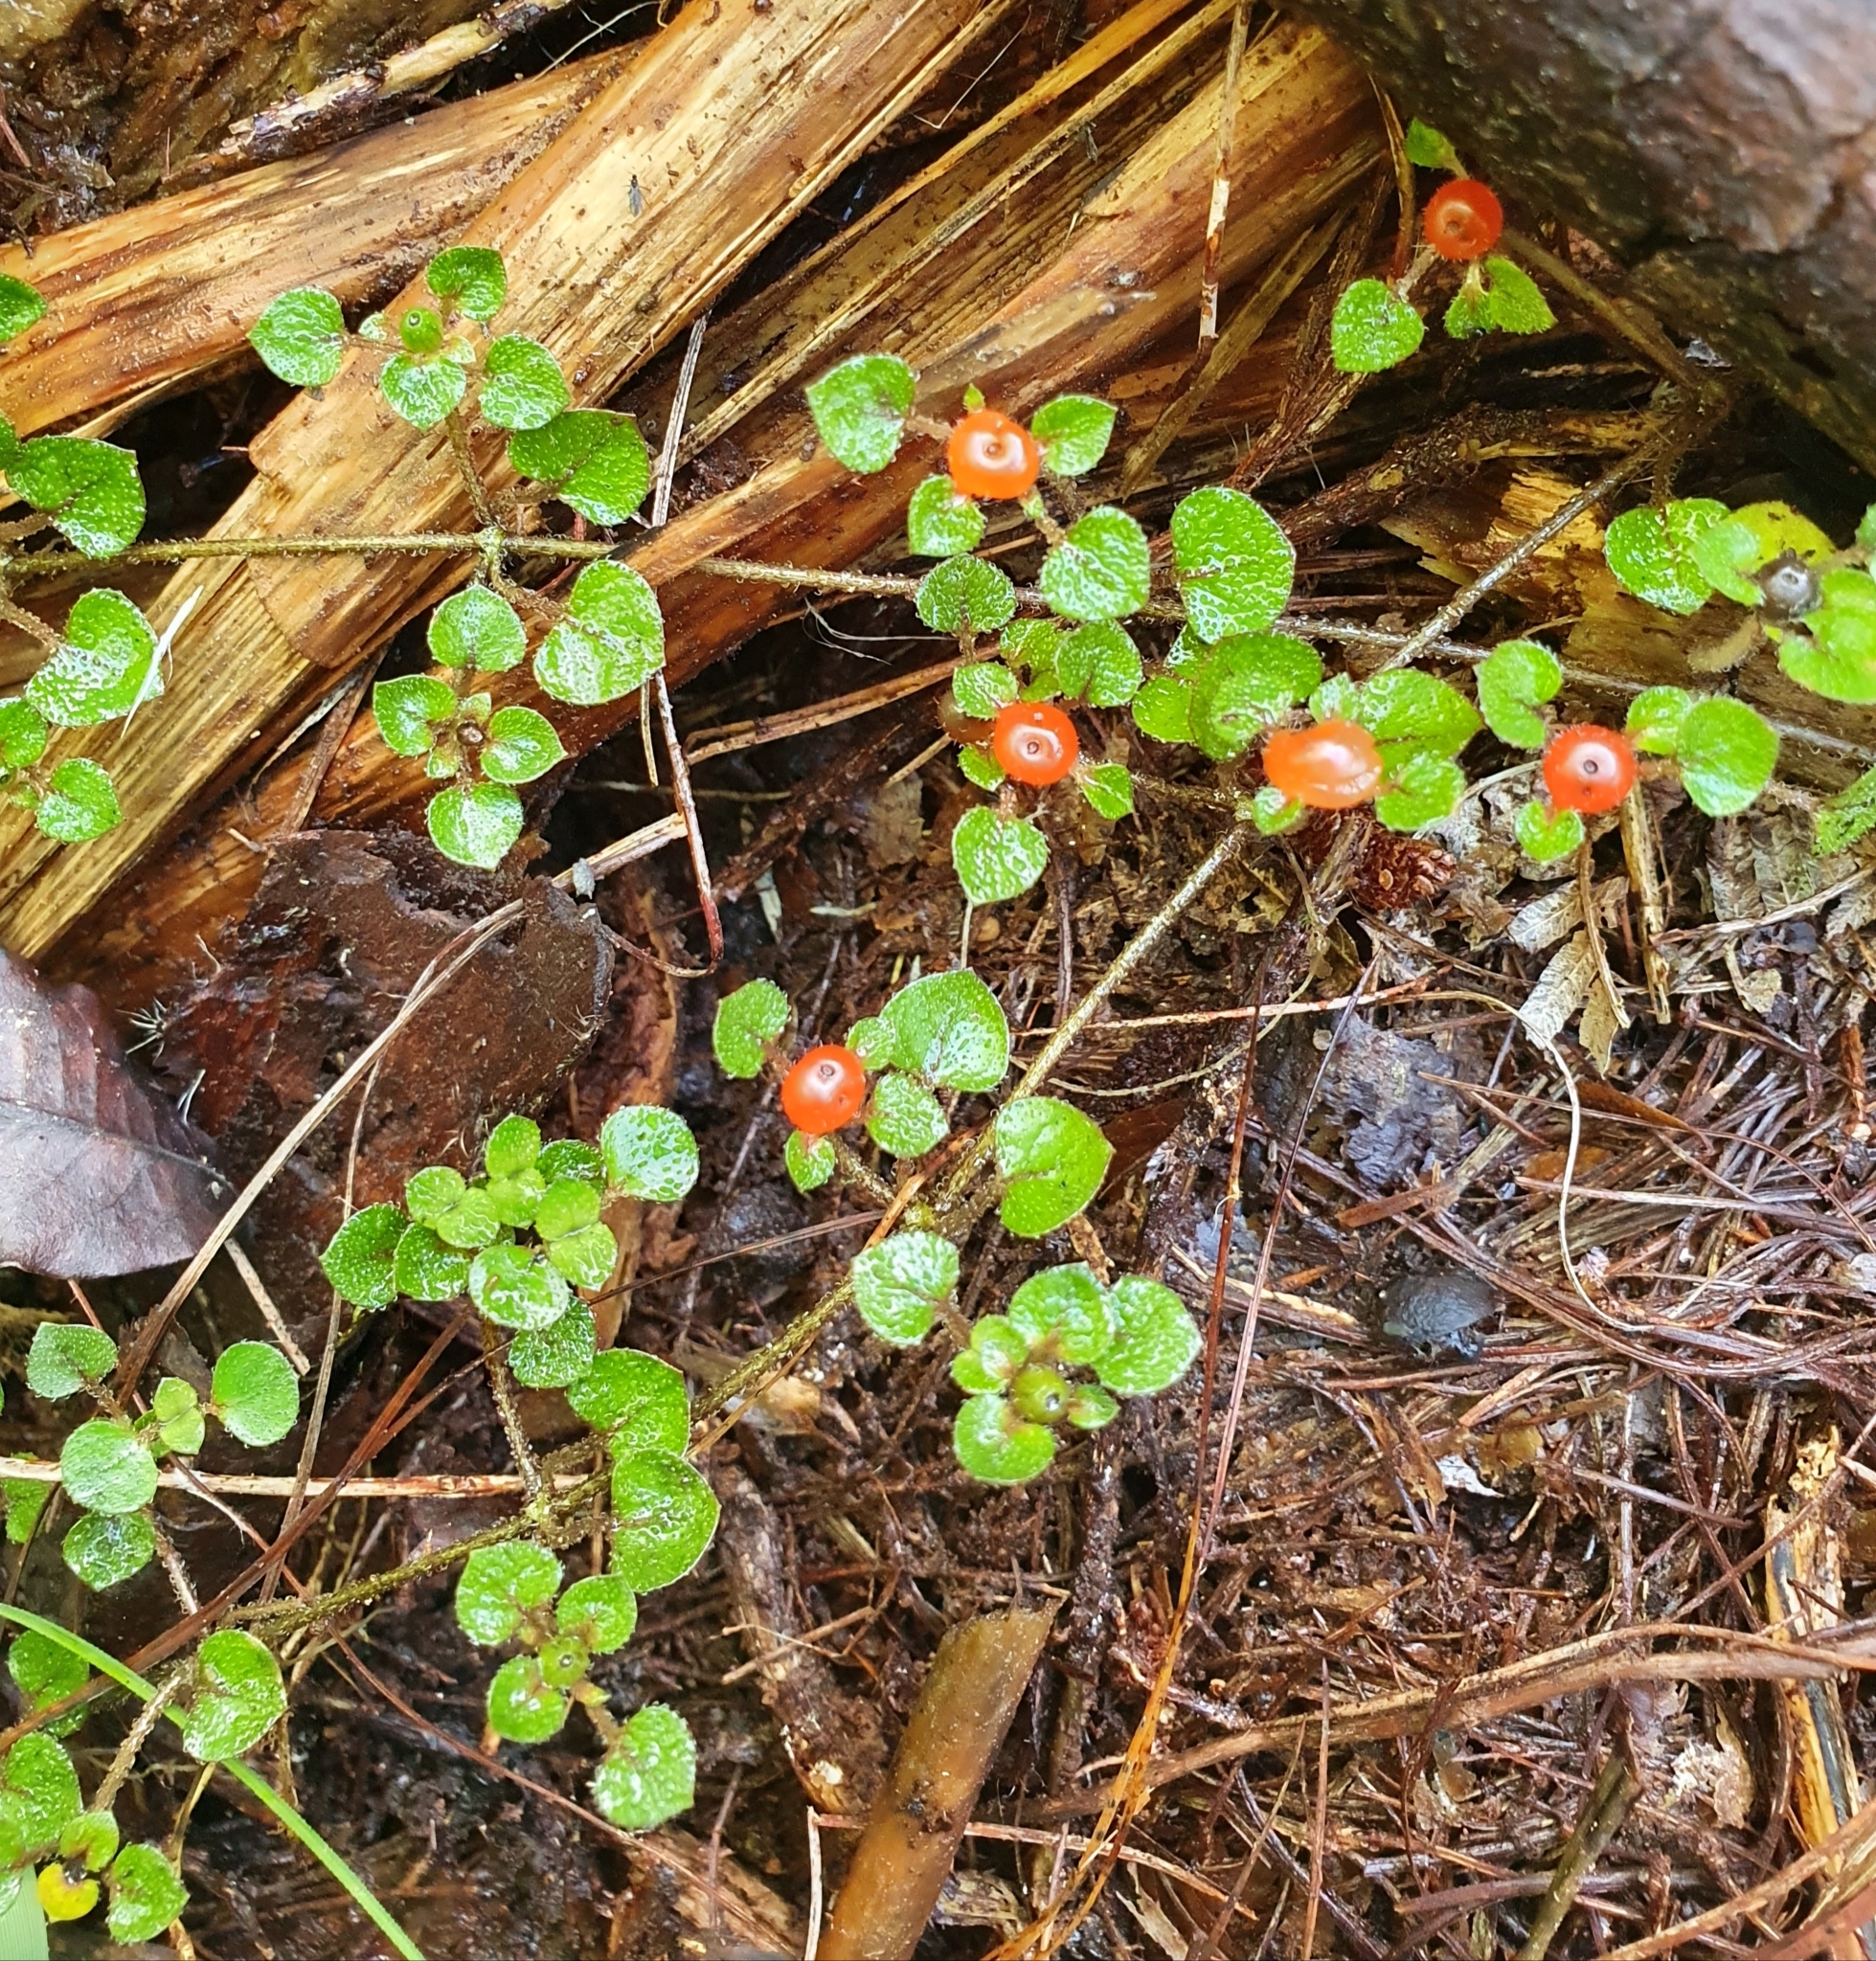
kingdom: Plantae
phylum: Tracheophyta
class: Magnoliopsida
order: Gentianales
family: Rubiaceae
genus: Nertera
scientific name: Nertera dichondrifolia
